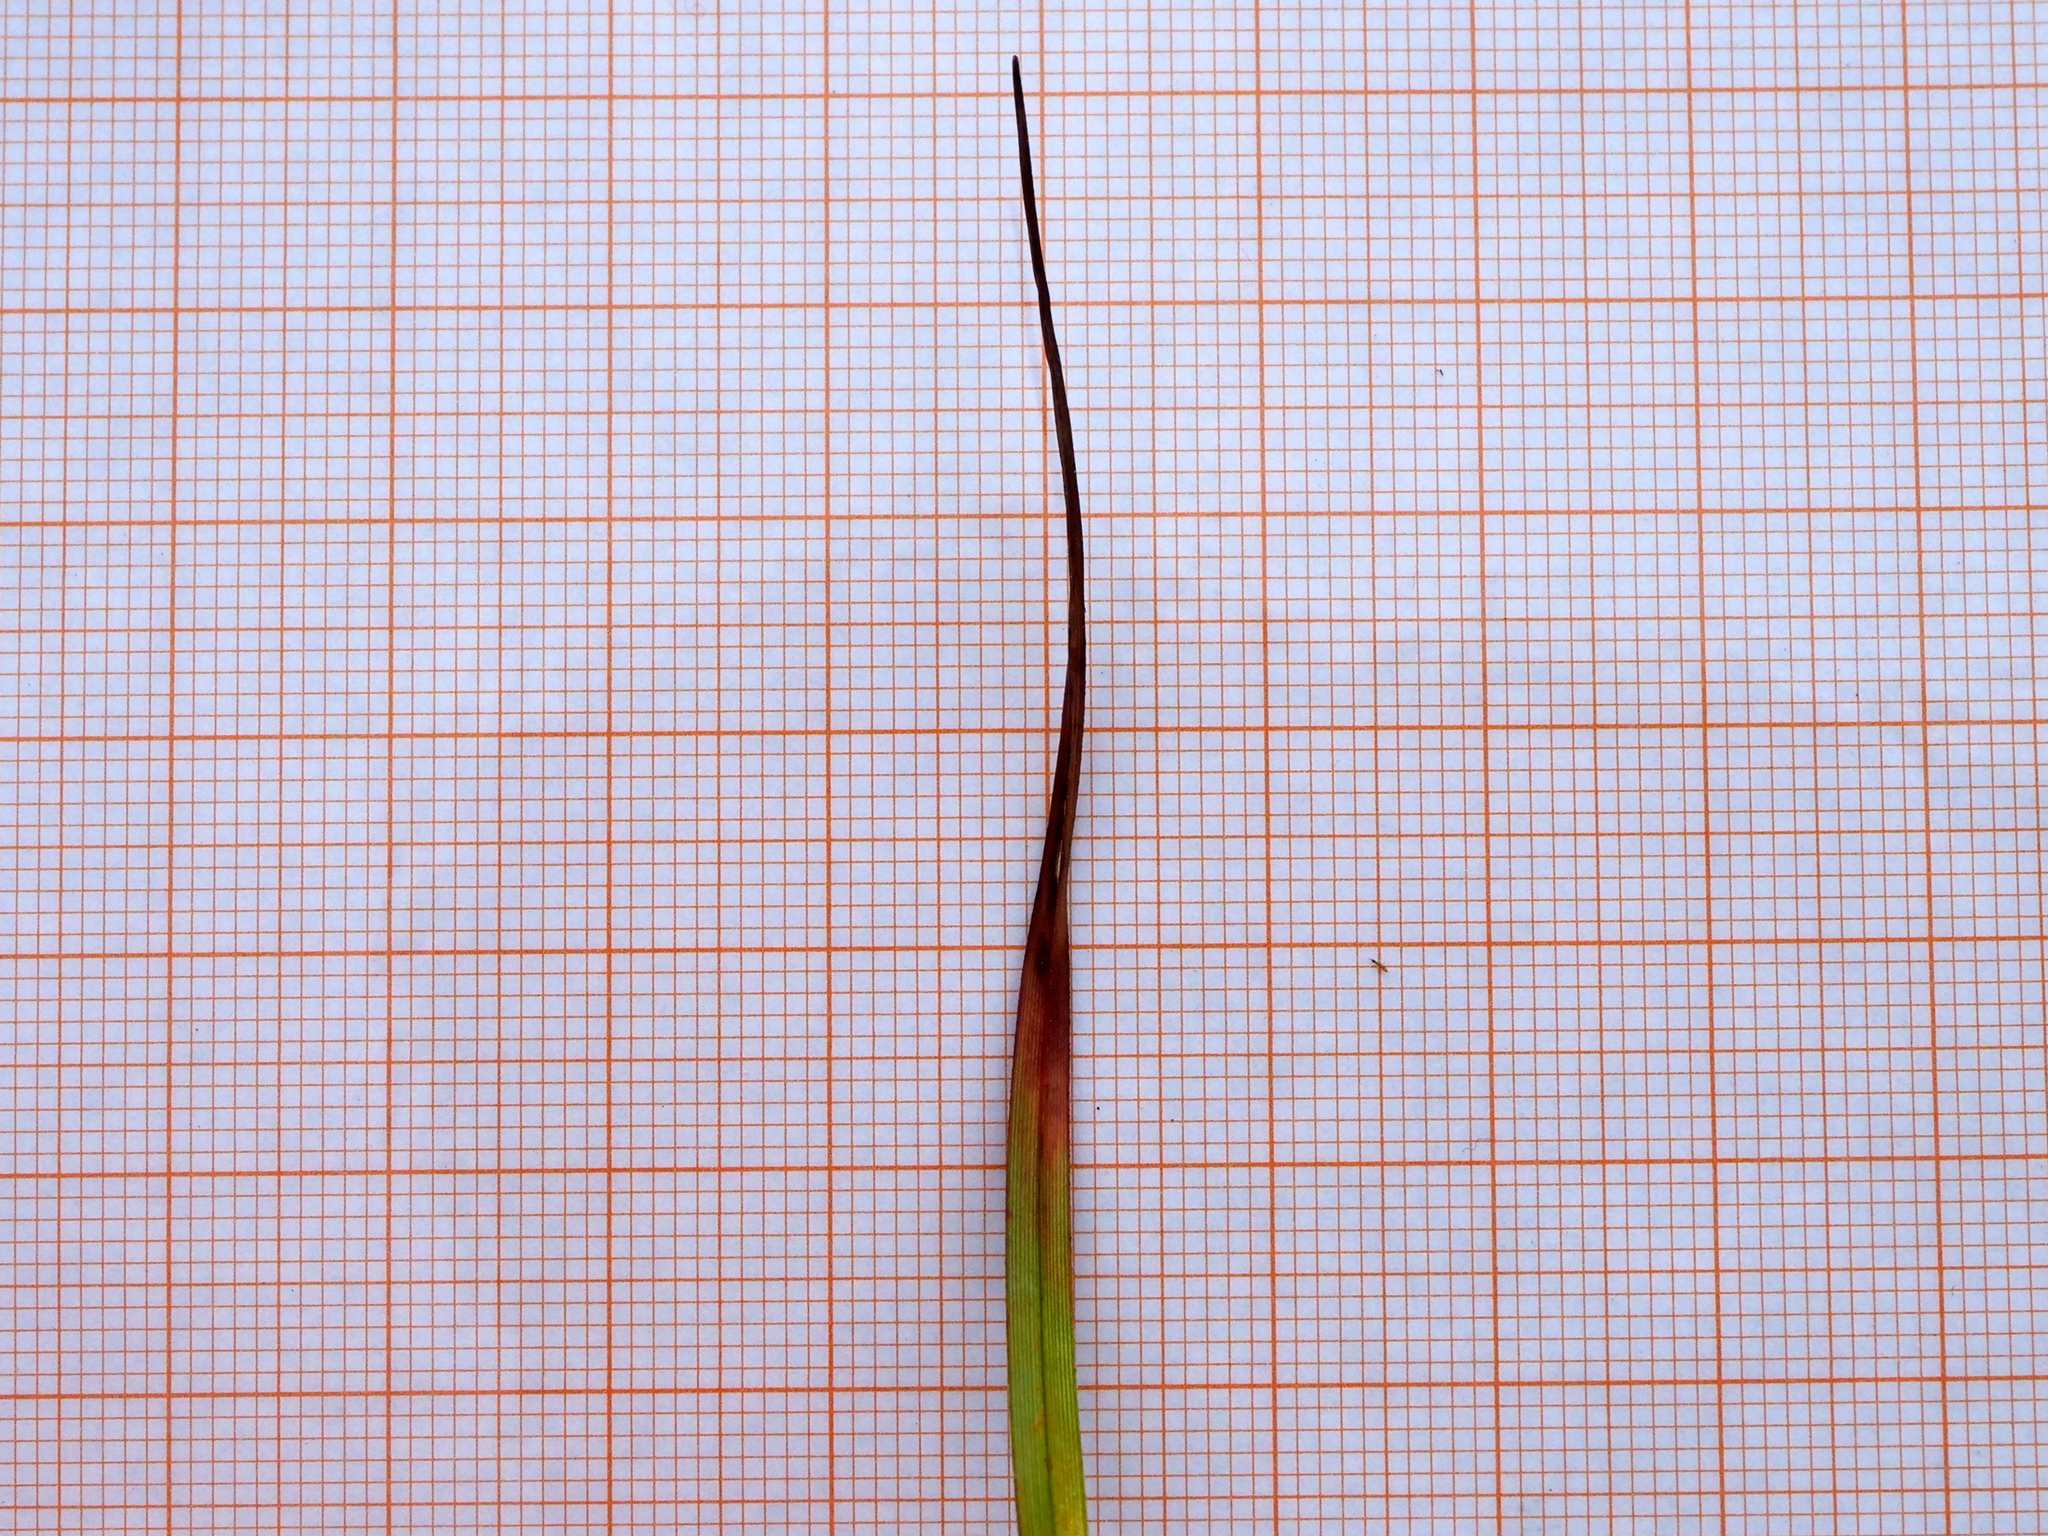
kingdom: Plantae
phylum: Tracheophyta
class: Liliopsida
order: Poales
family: Cyperaceae
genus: Eriophorum
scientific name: Eriophorum angustifolium
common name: Common cottongrass
